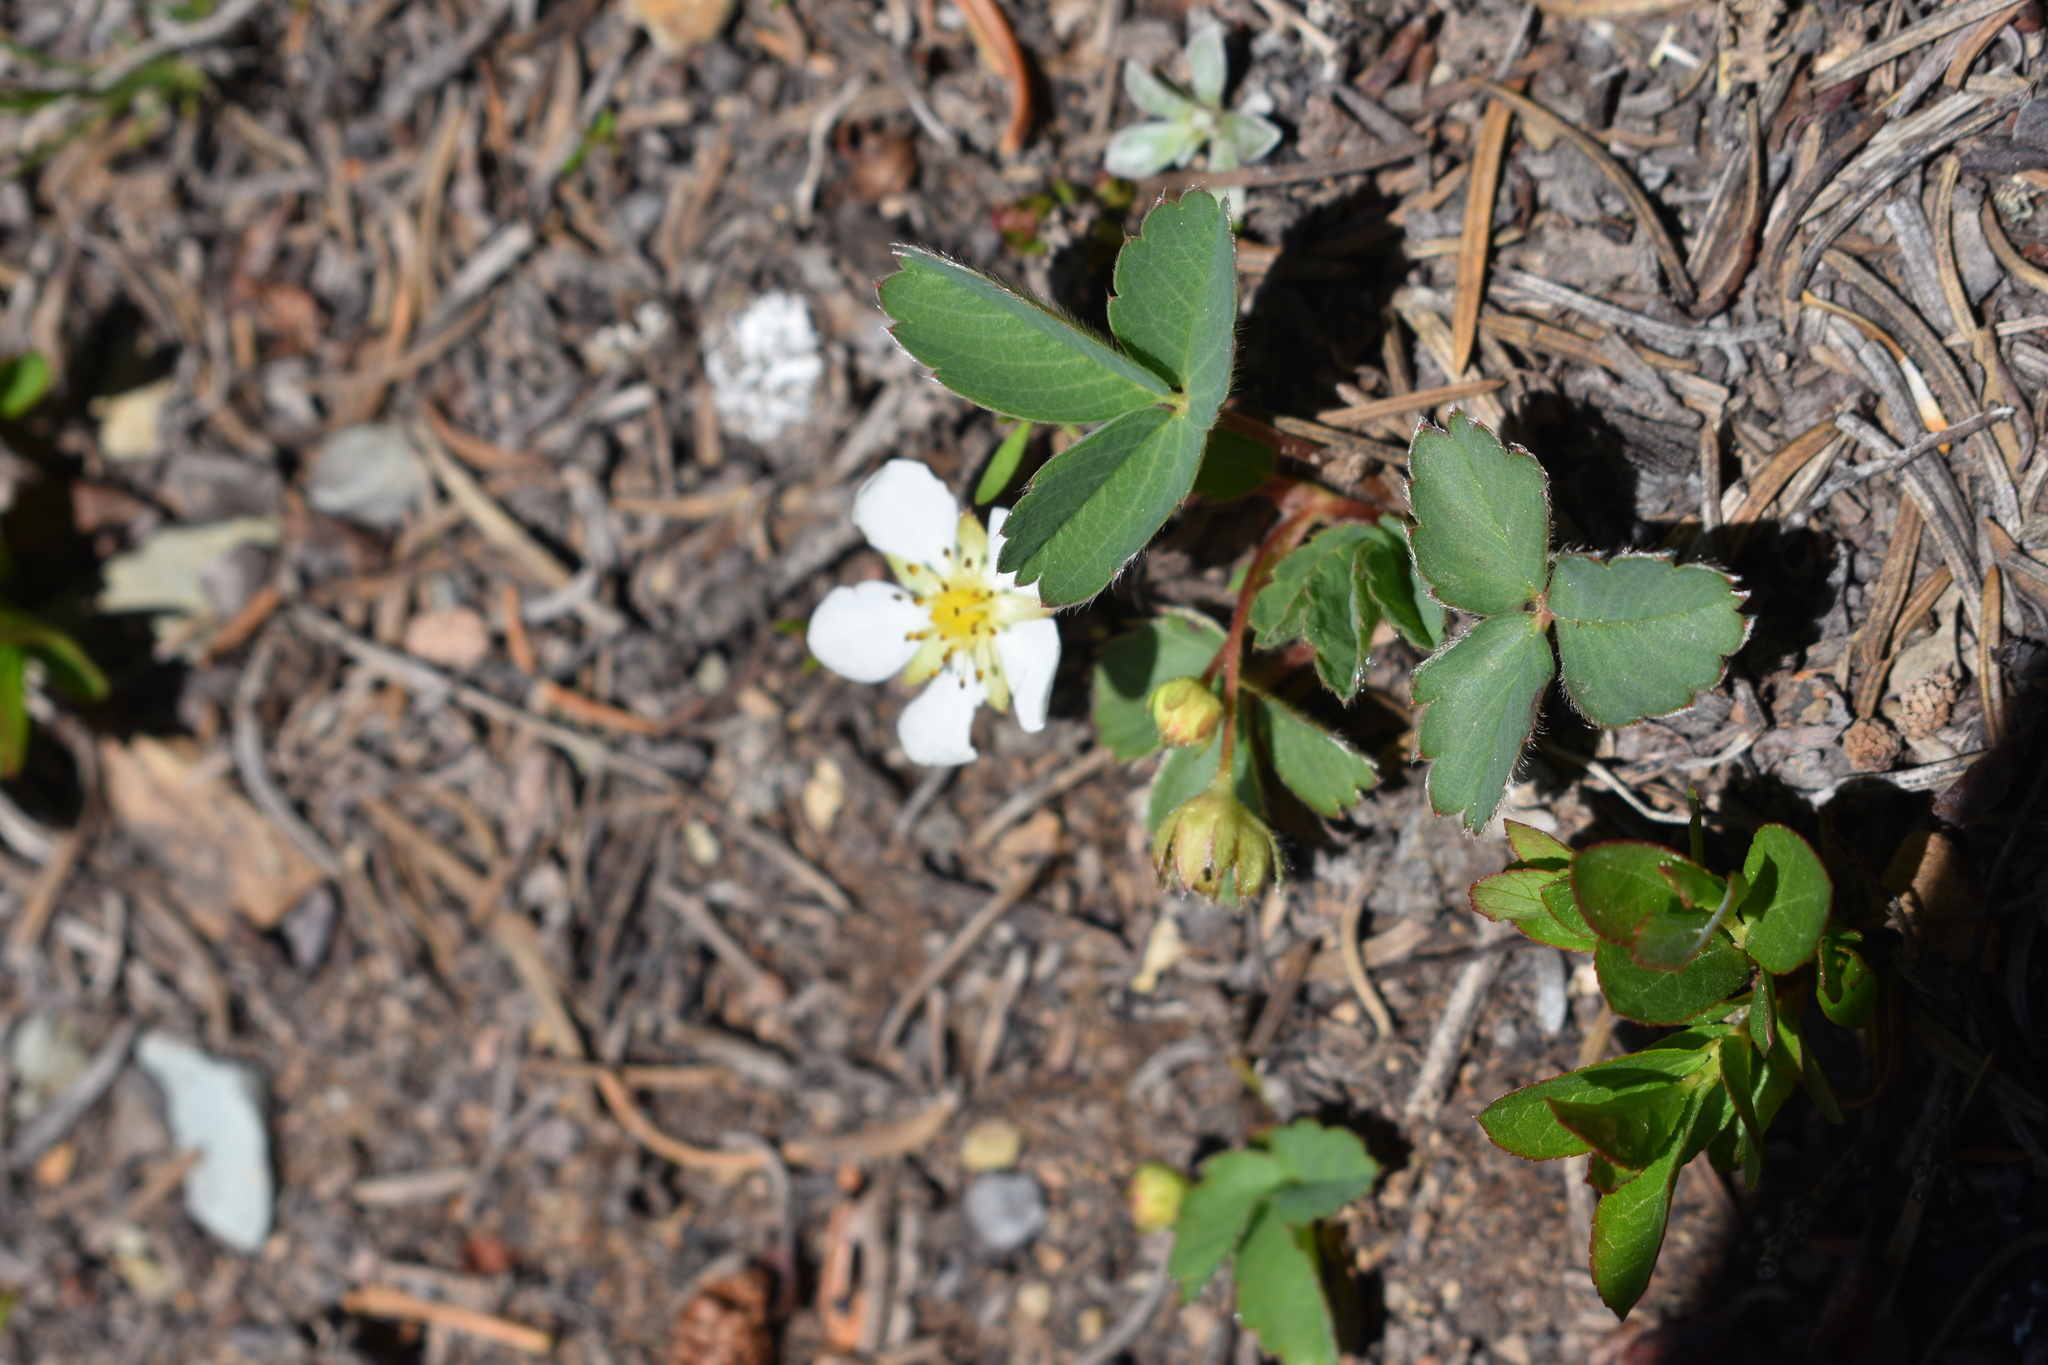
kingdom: Plantae
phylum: Tracheophyta
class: Magnoliopsida
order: Rosales
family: Rosaceae
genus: Fragaria
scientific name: Fragaria virginiana
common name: Thickleaved wild strawberry
